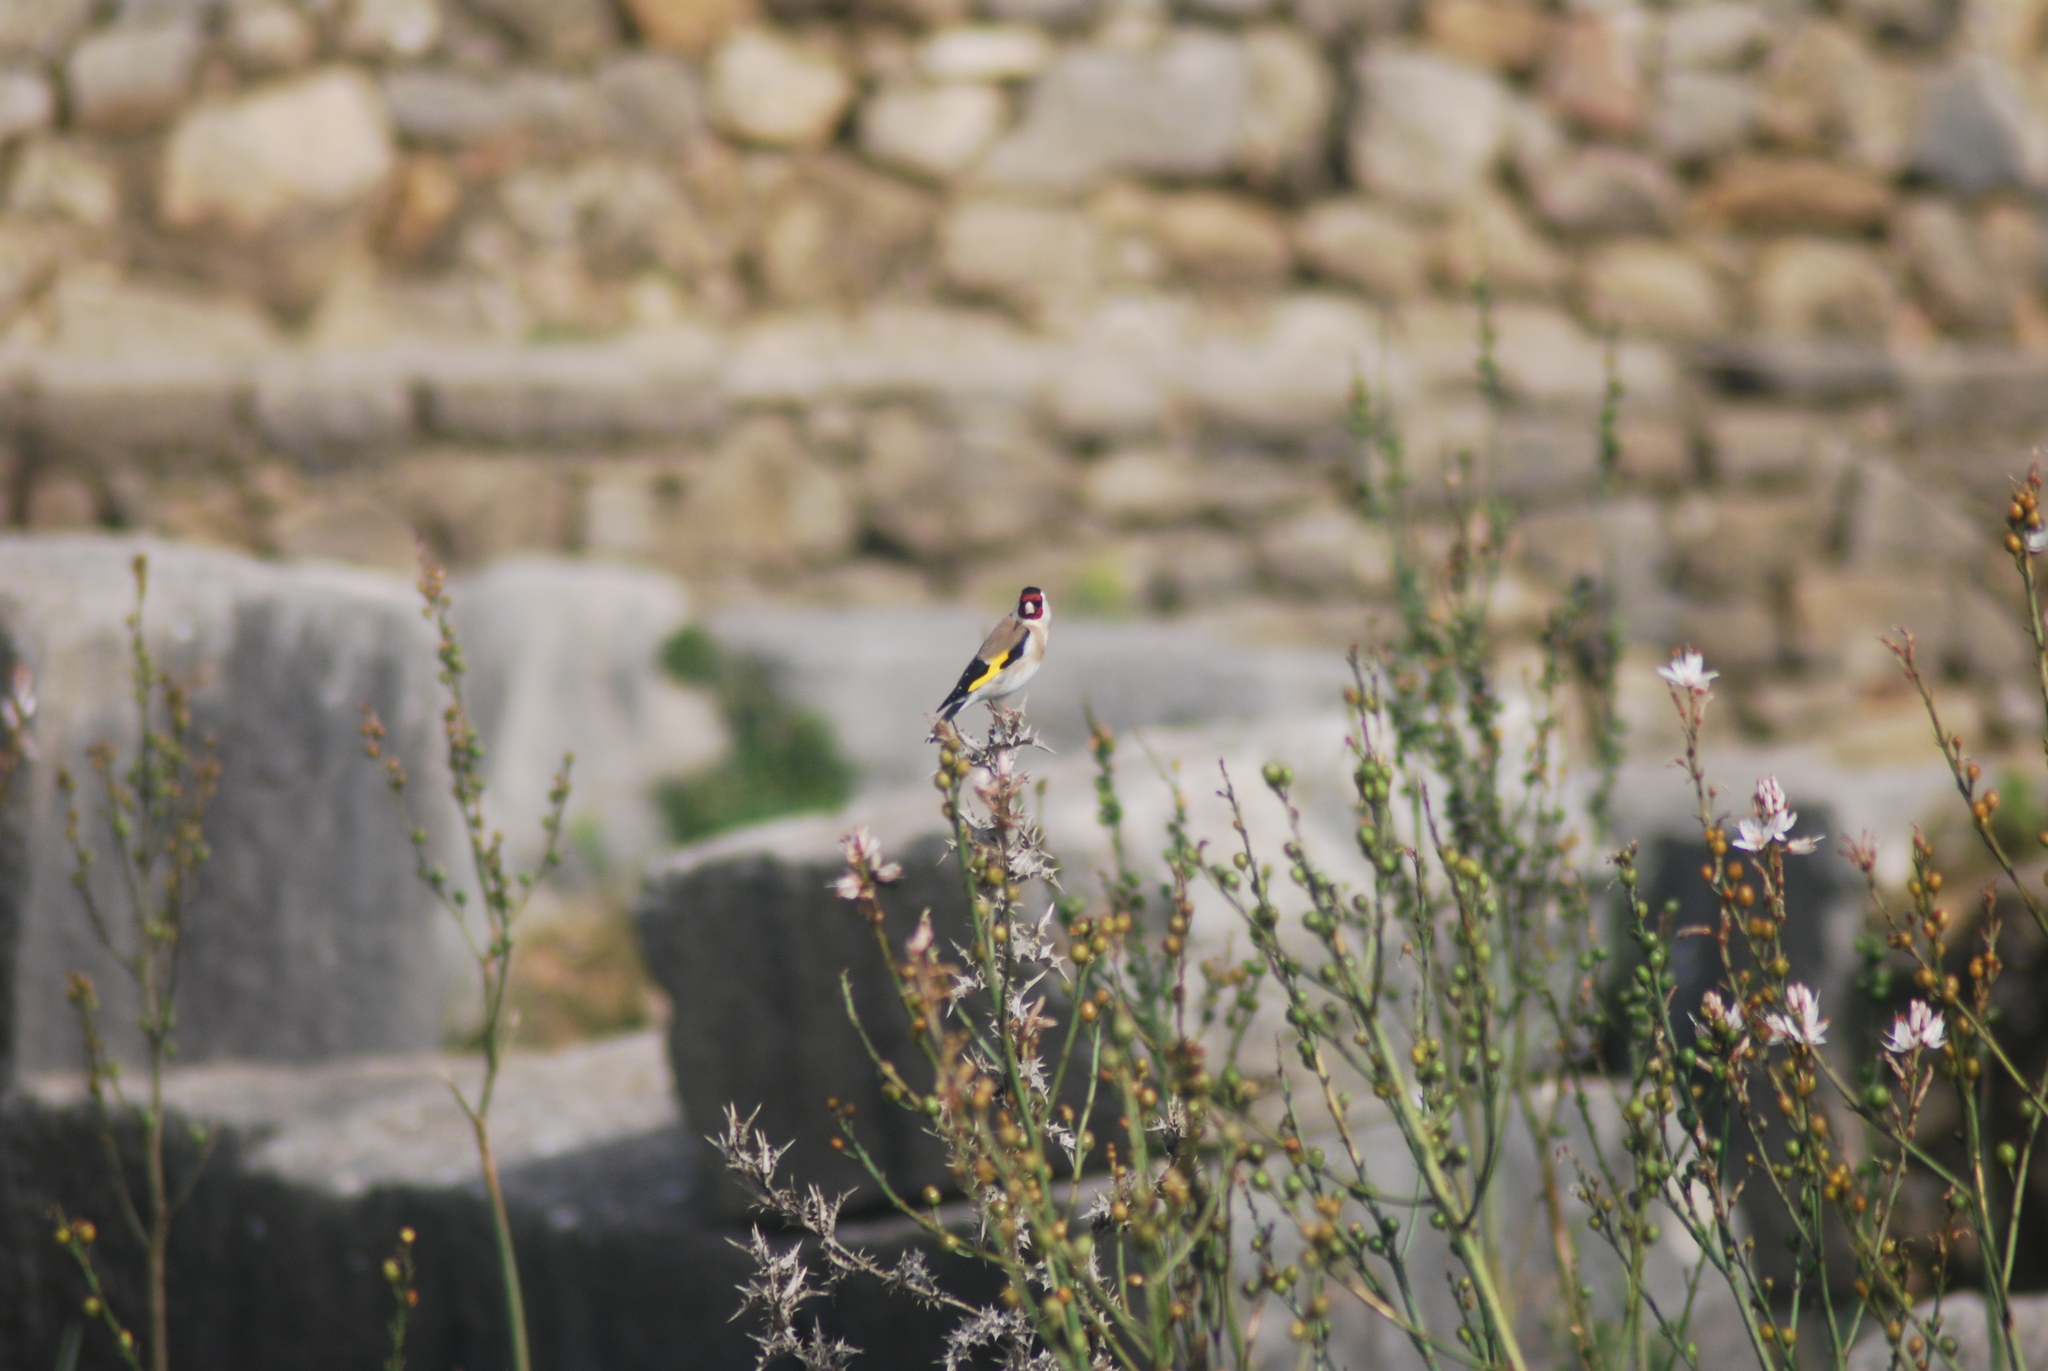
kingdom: Animalia
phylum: Chordata
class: Aves
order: Passeriformes
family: Fringillidae
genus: Carduelis
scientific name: Carduelis carduelis
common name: European goldfinch
